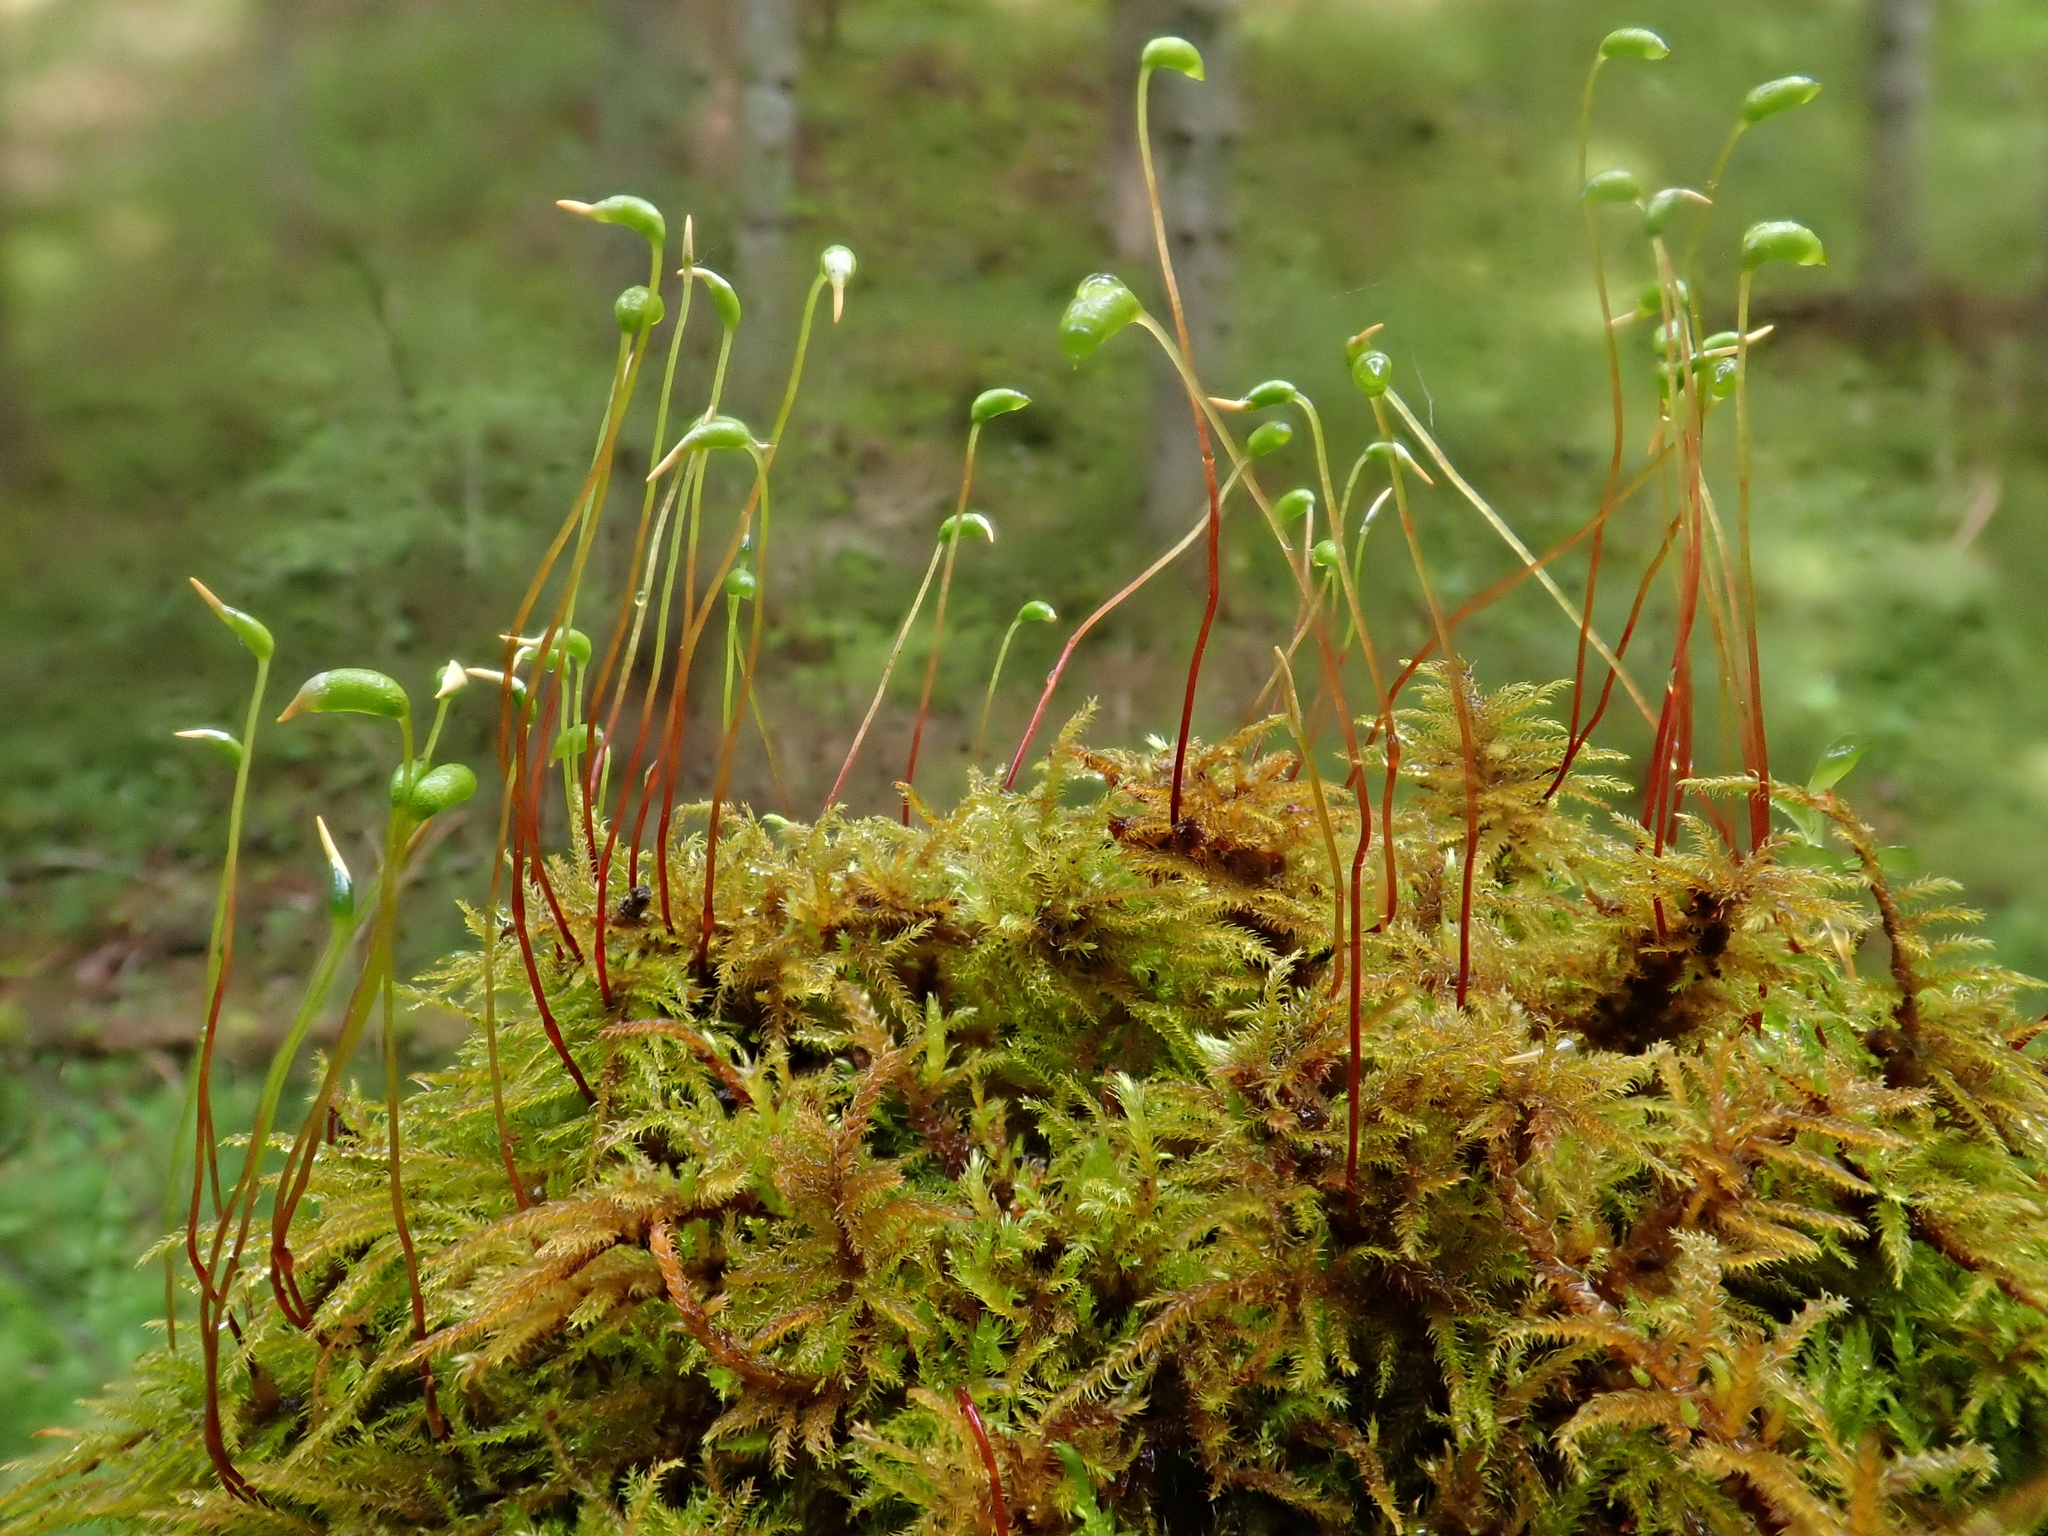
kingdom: Plantae
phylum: Bryophyta
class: Bryopsida
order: Hypnales
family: Amblystegiaceae
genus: Palustriella
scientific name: Palustriella commutata
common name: Curled hook-moss
